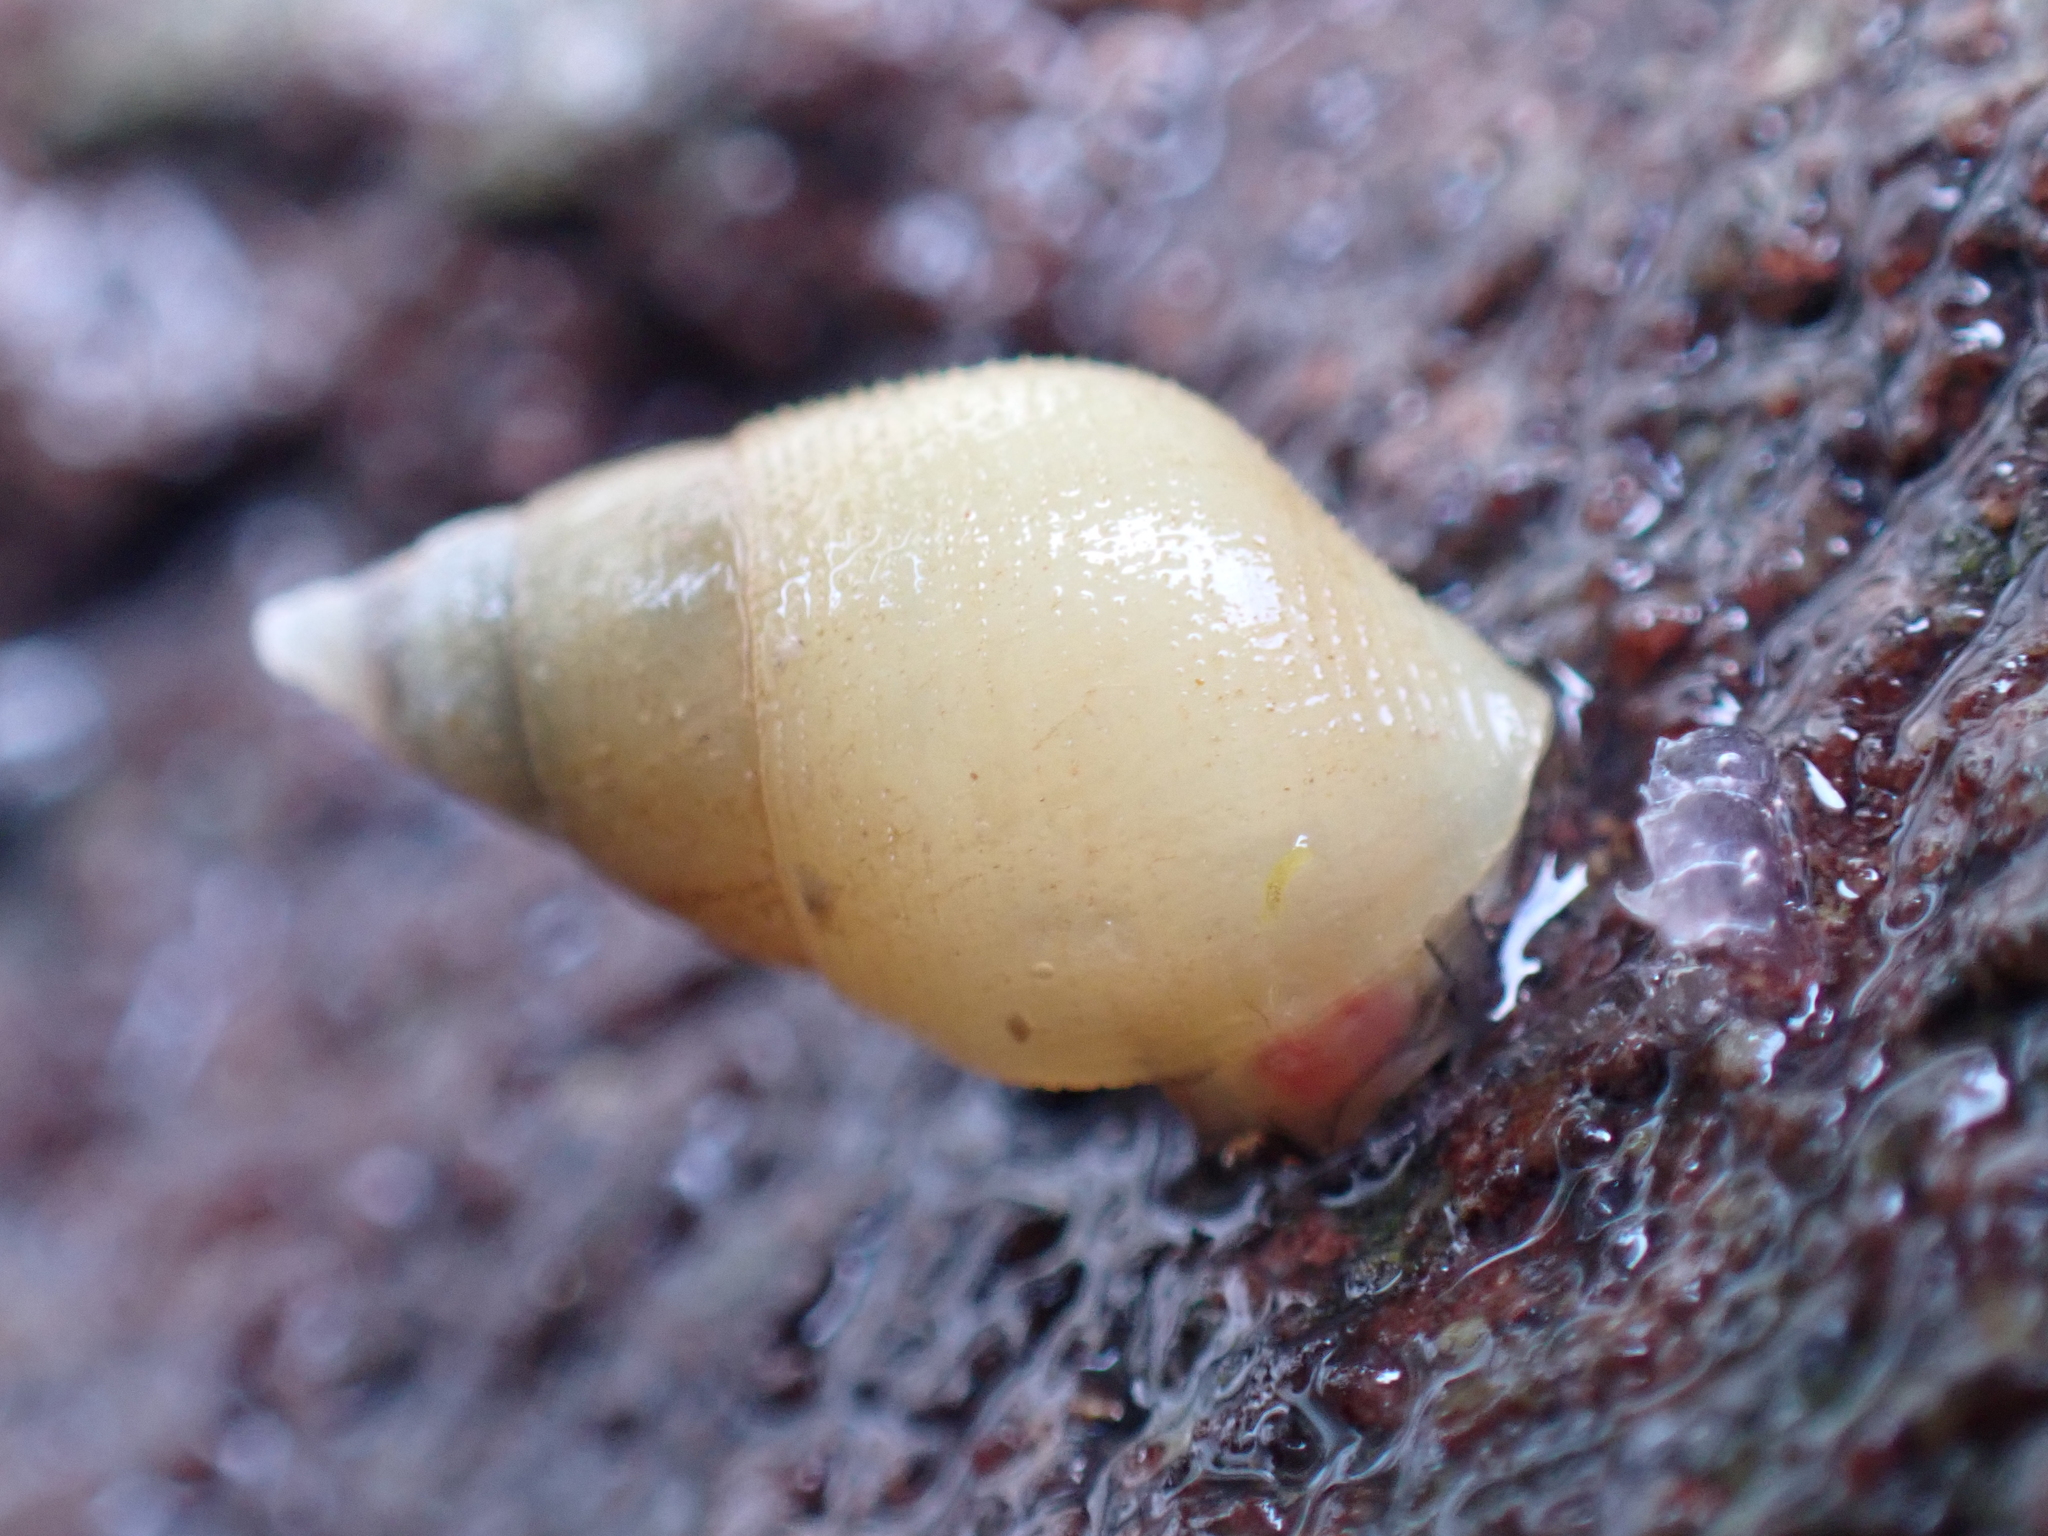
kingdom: Animalia
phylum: Mollusca
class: Gastropoda
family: Planaxidae
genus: Hinea
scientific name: Hinea brasiliana
